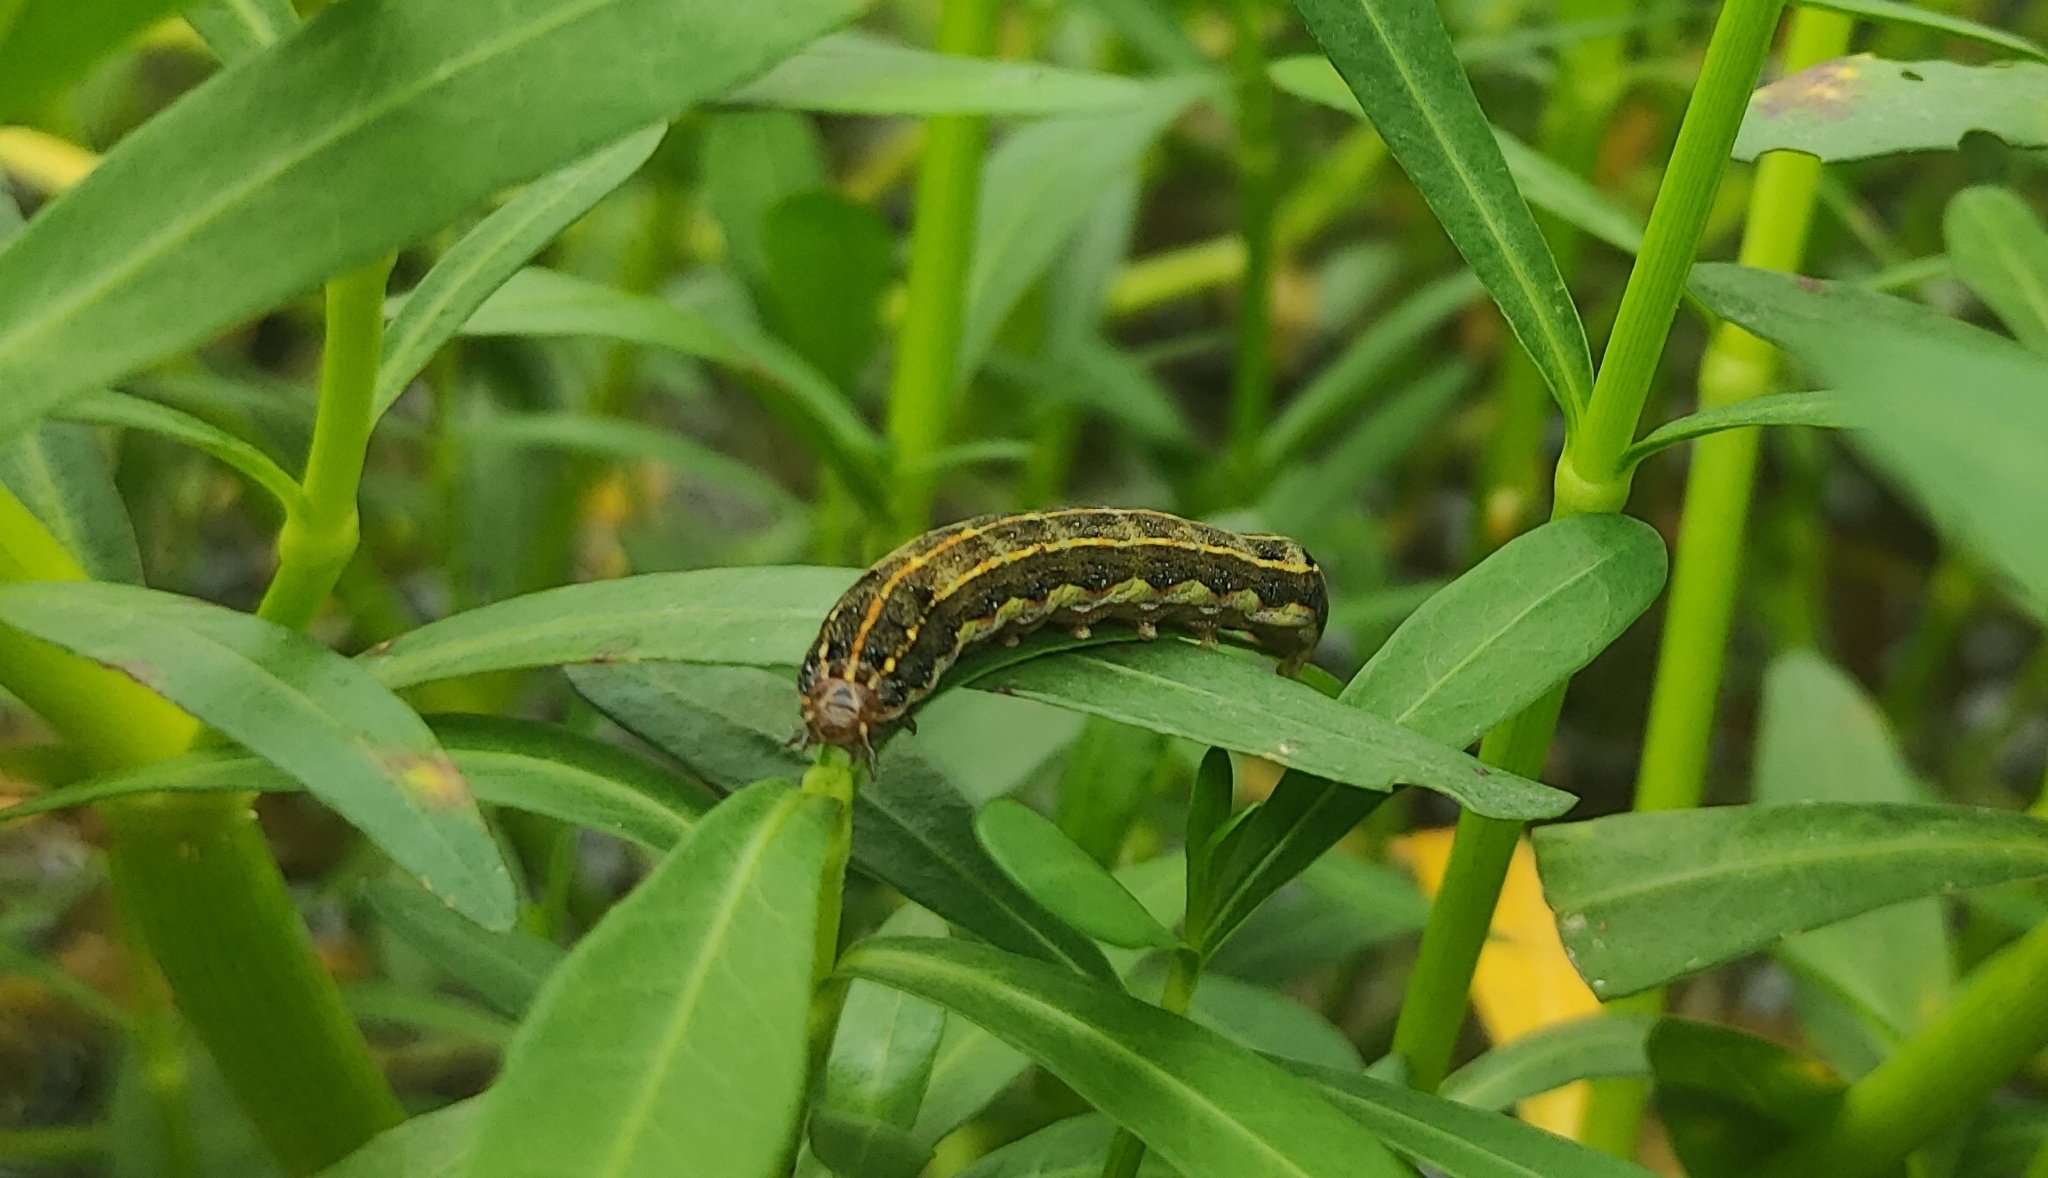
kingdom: Animalia
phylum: Arthropoda
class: Insecta
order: Lepidoptera
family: Noctuidae
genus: Spodoptera
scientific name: Spodoptera litura
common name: Asian cotton leafworm
